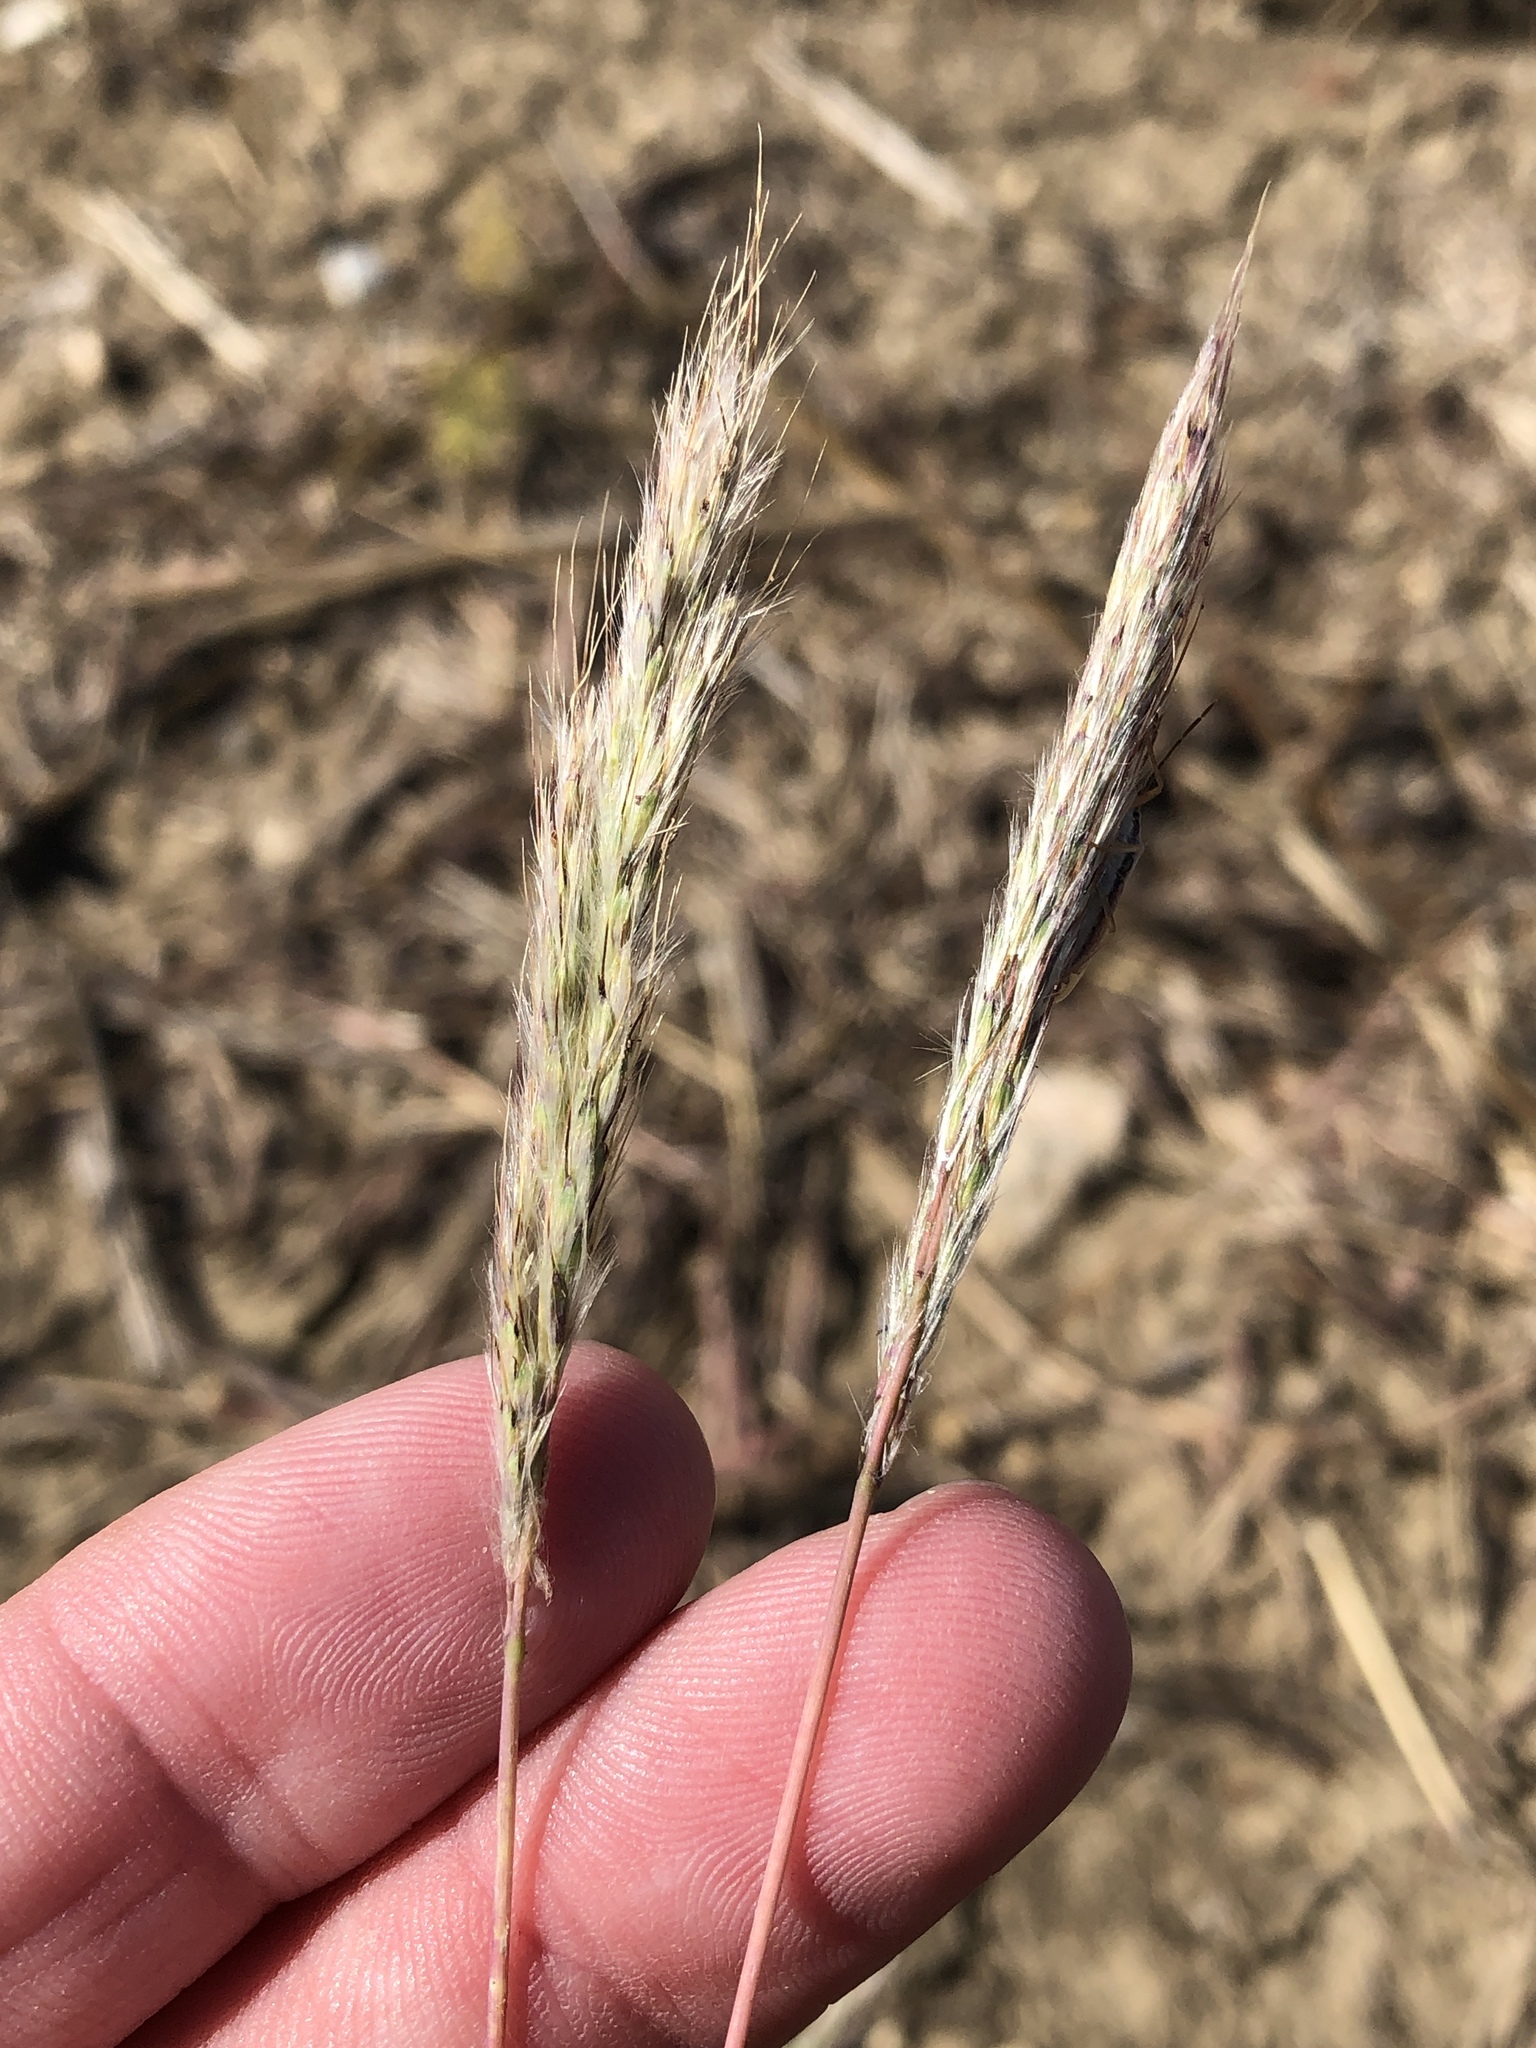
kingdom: Plantae
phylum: Tracheophyta
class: Liliopsida
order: Poales
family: Poaceae
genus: Bothriochloa
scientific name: Bothriochloa torreyana
